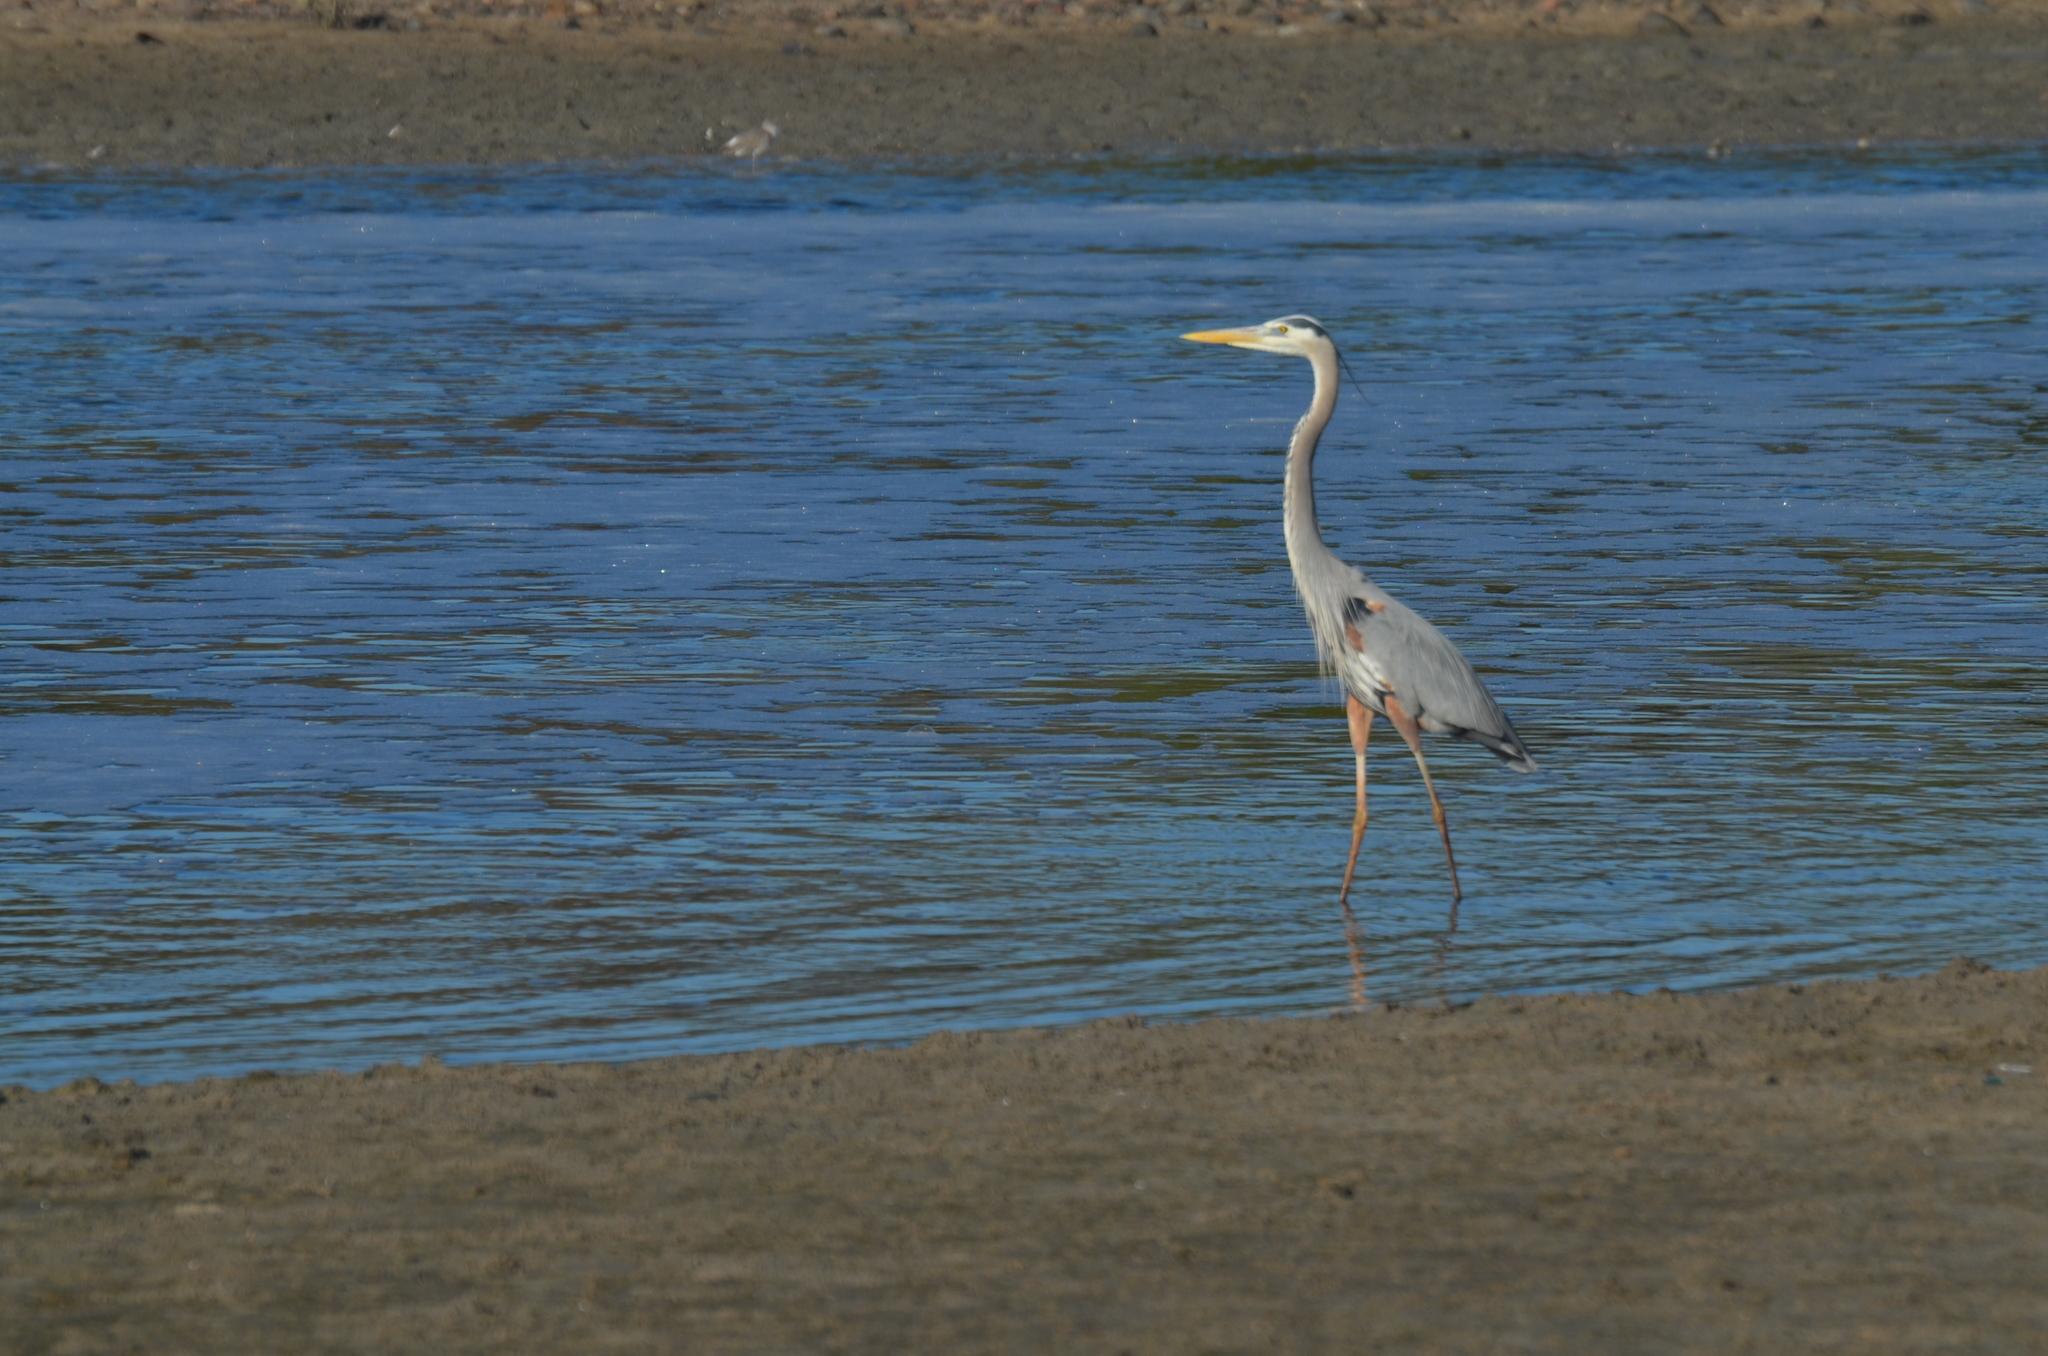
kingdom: Animalia
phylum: Chordata
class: Aves
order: Pelecaniformes
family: Ardeidae
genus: Ardea
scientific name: Ardea herodias
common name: Great blue heron
